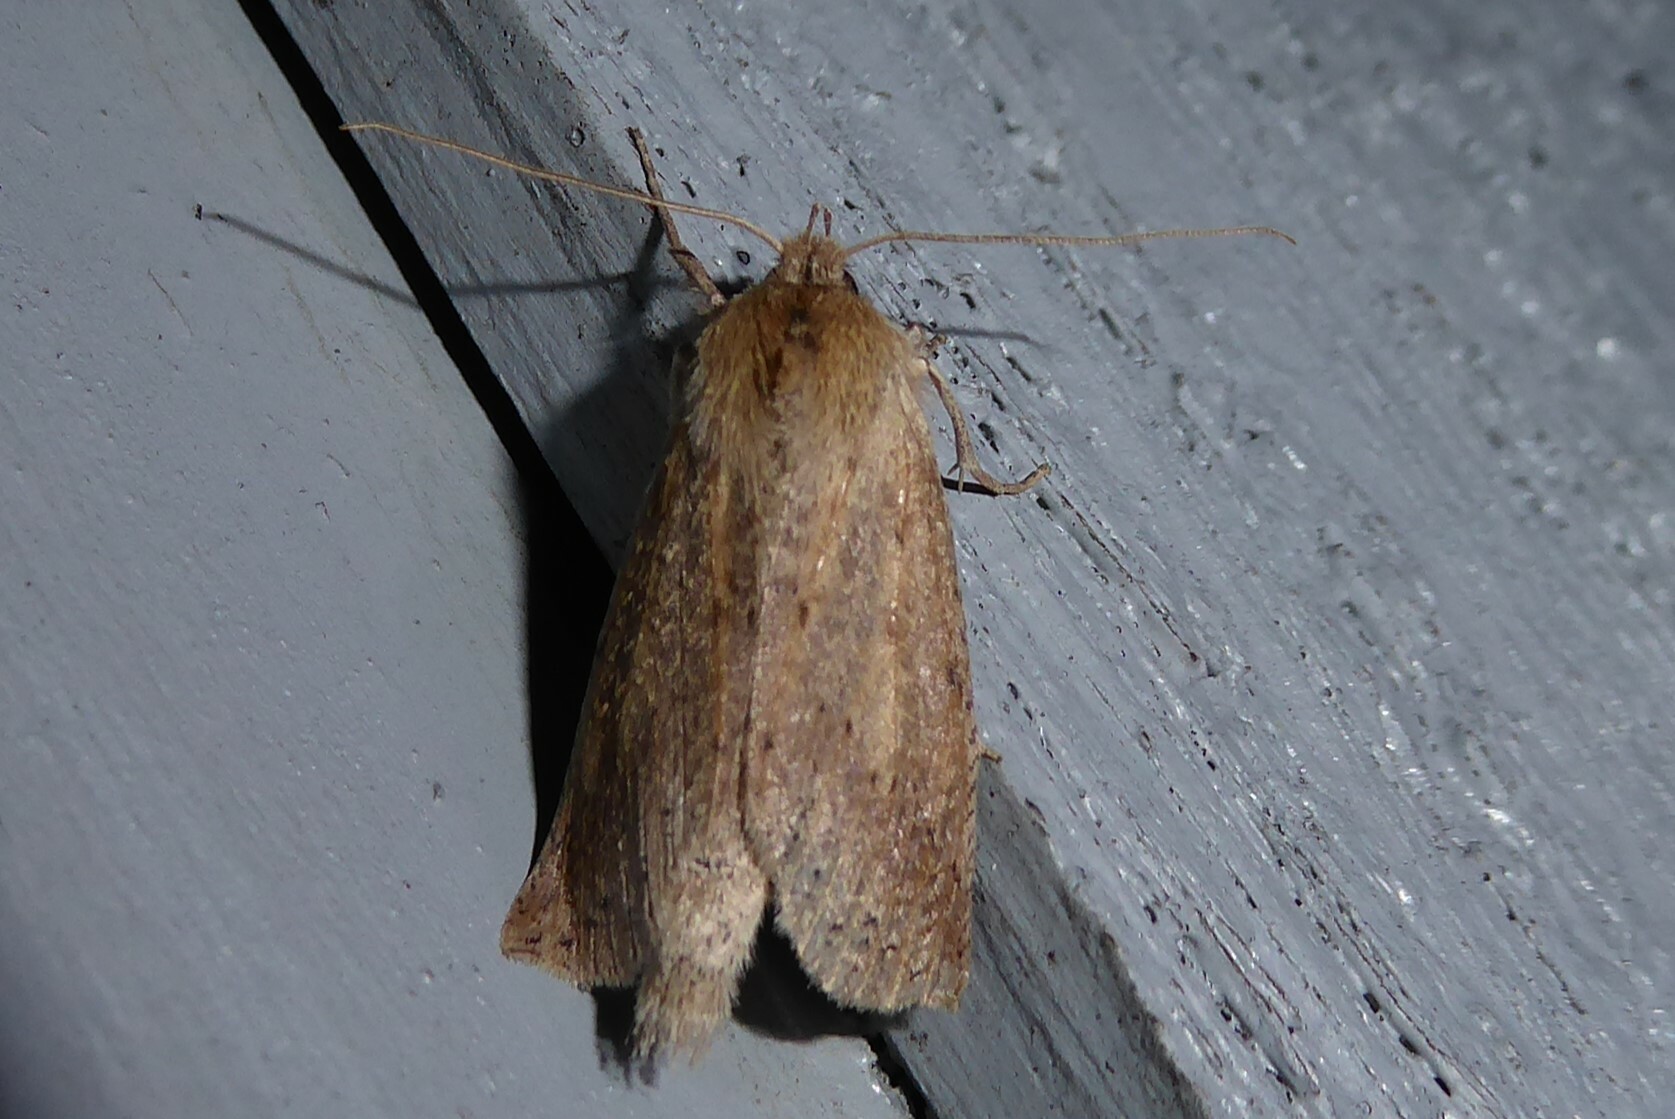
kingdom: Animalia
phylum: Arthropoda
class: Insecta
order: Lepidoptera
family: Geometridae
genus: Declana
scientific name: Declana leptomera
